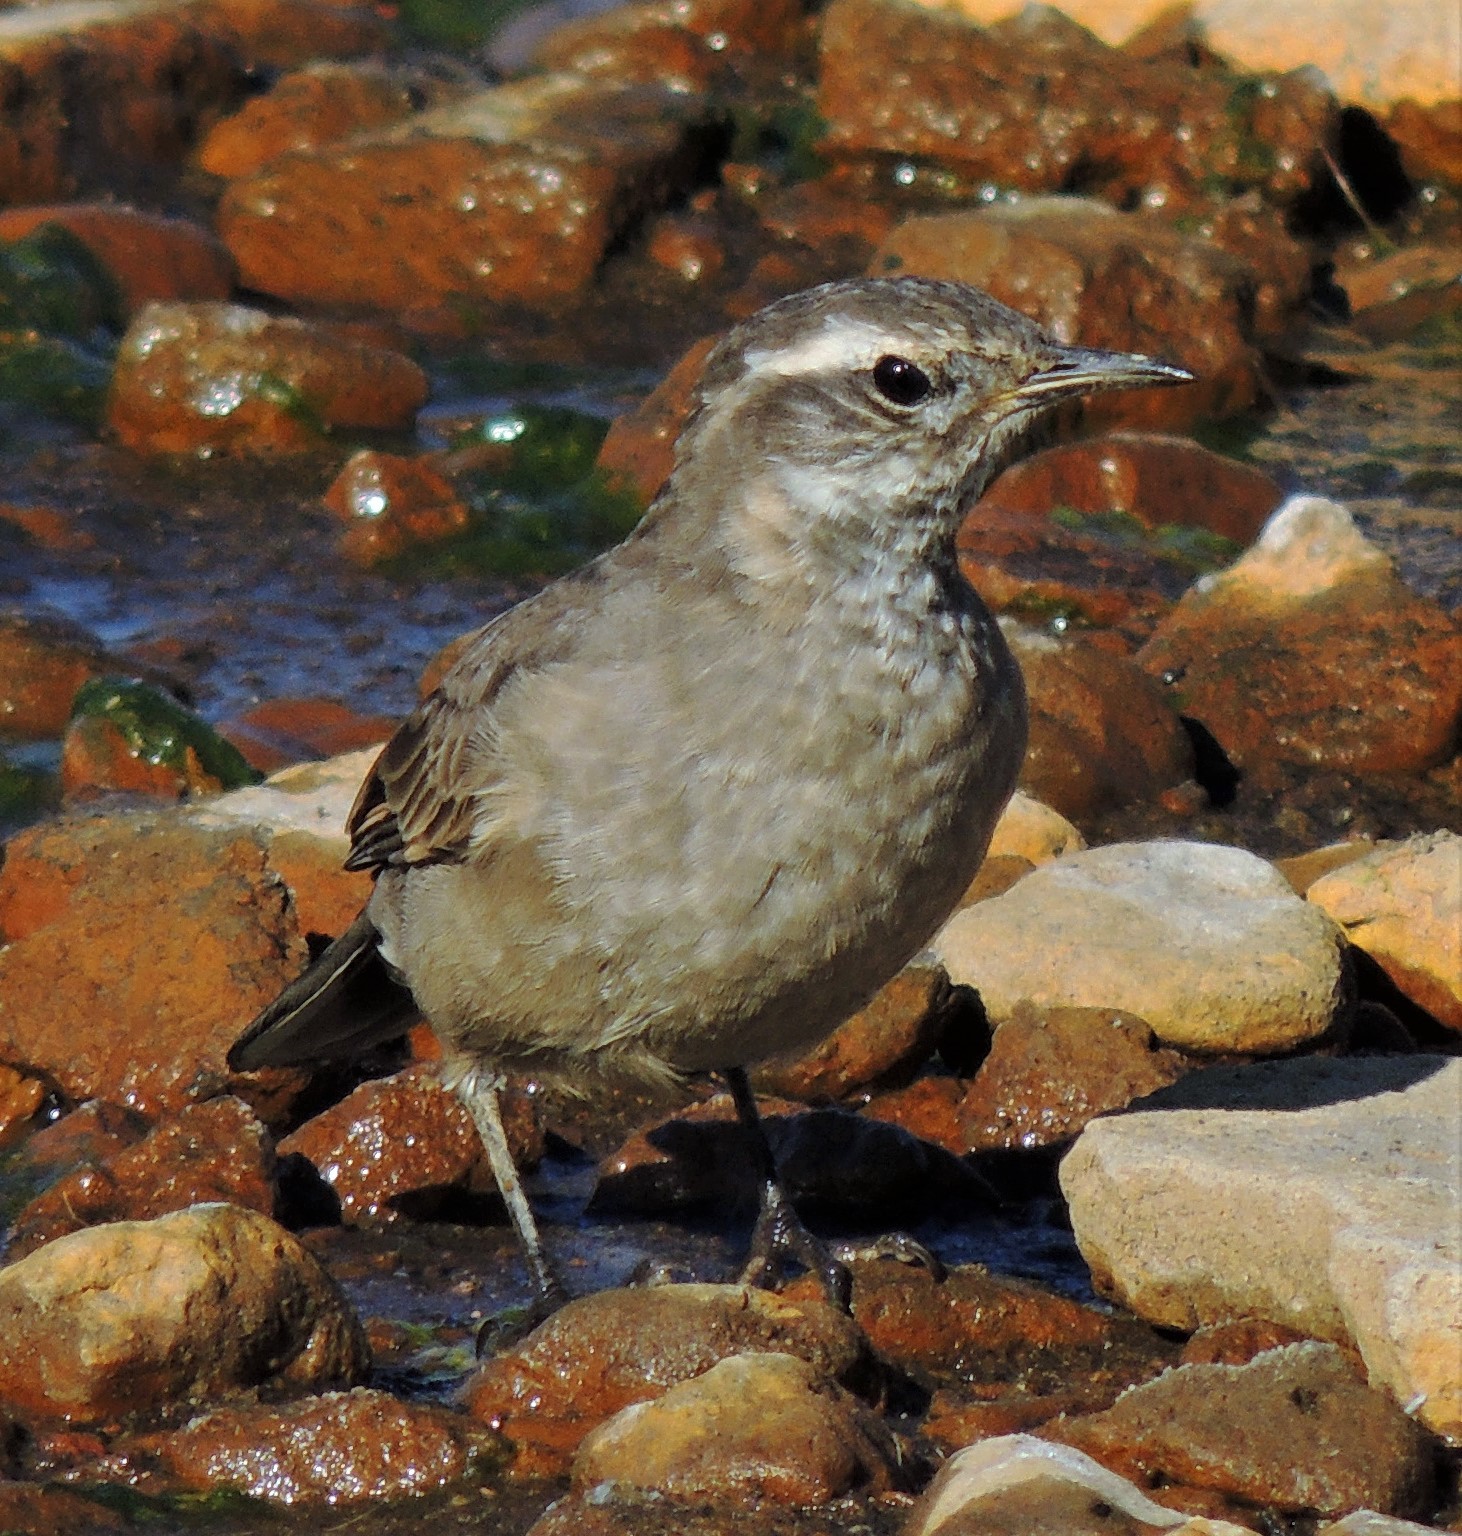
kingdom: Animalia
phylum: Chordata
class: Aves
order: Passeriformes
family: Furnariidae
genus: Cinclodes
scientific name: Cinclodes fuscus
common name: Buff-winged cinclodes
